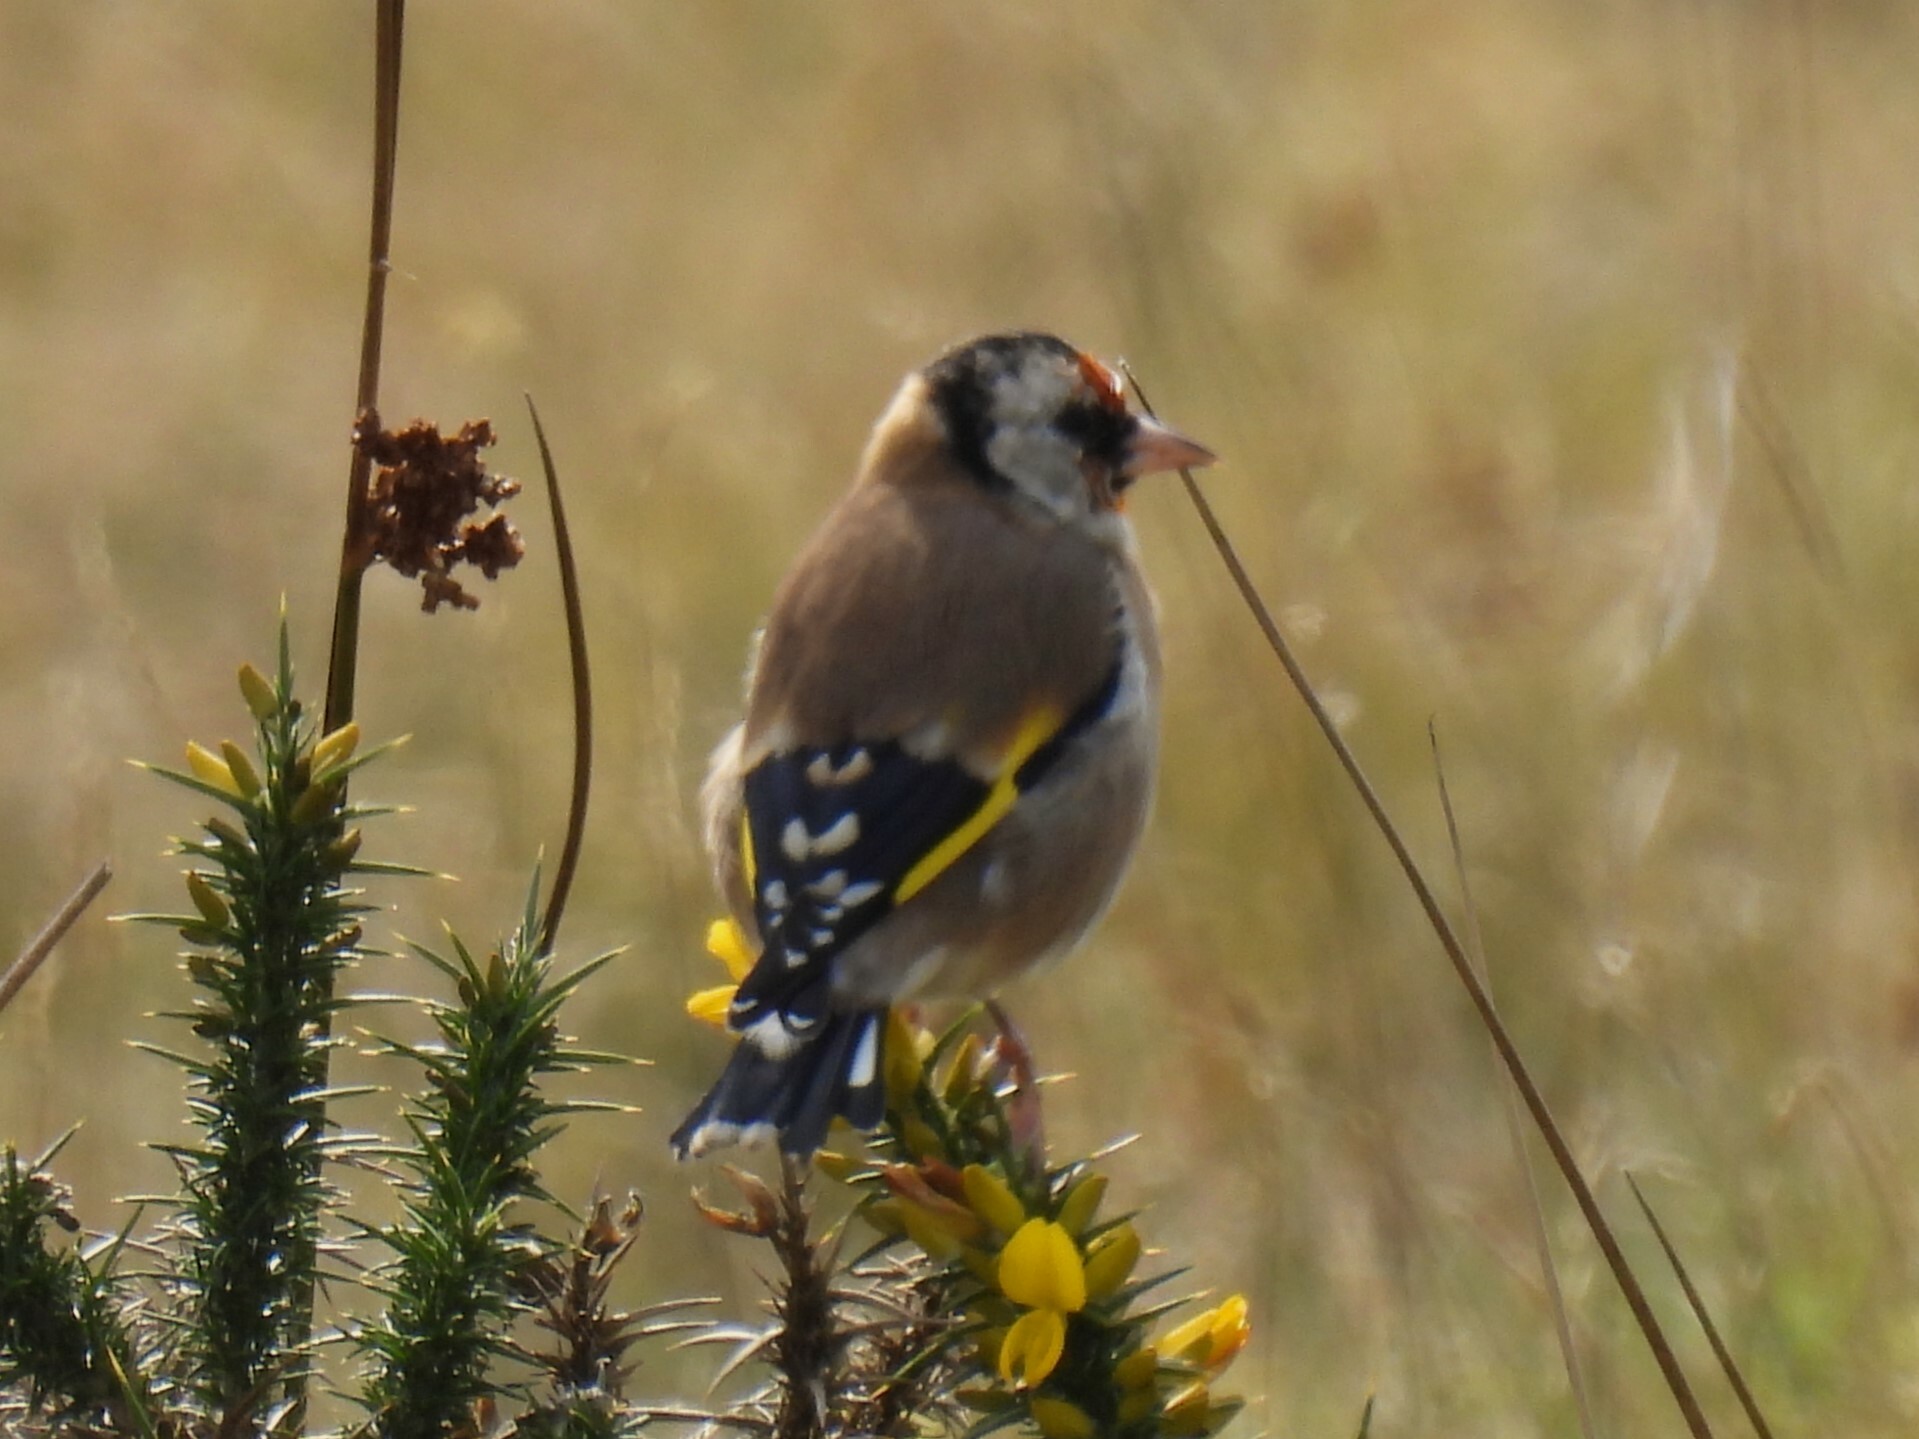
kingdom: Animalia
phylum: Chordata
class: Aves
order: Passeriformes
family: Fringillidae
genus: Carduelis
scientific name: Carduelis carduelis
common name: European goldfinch
